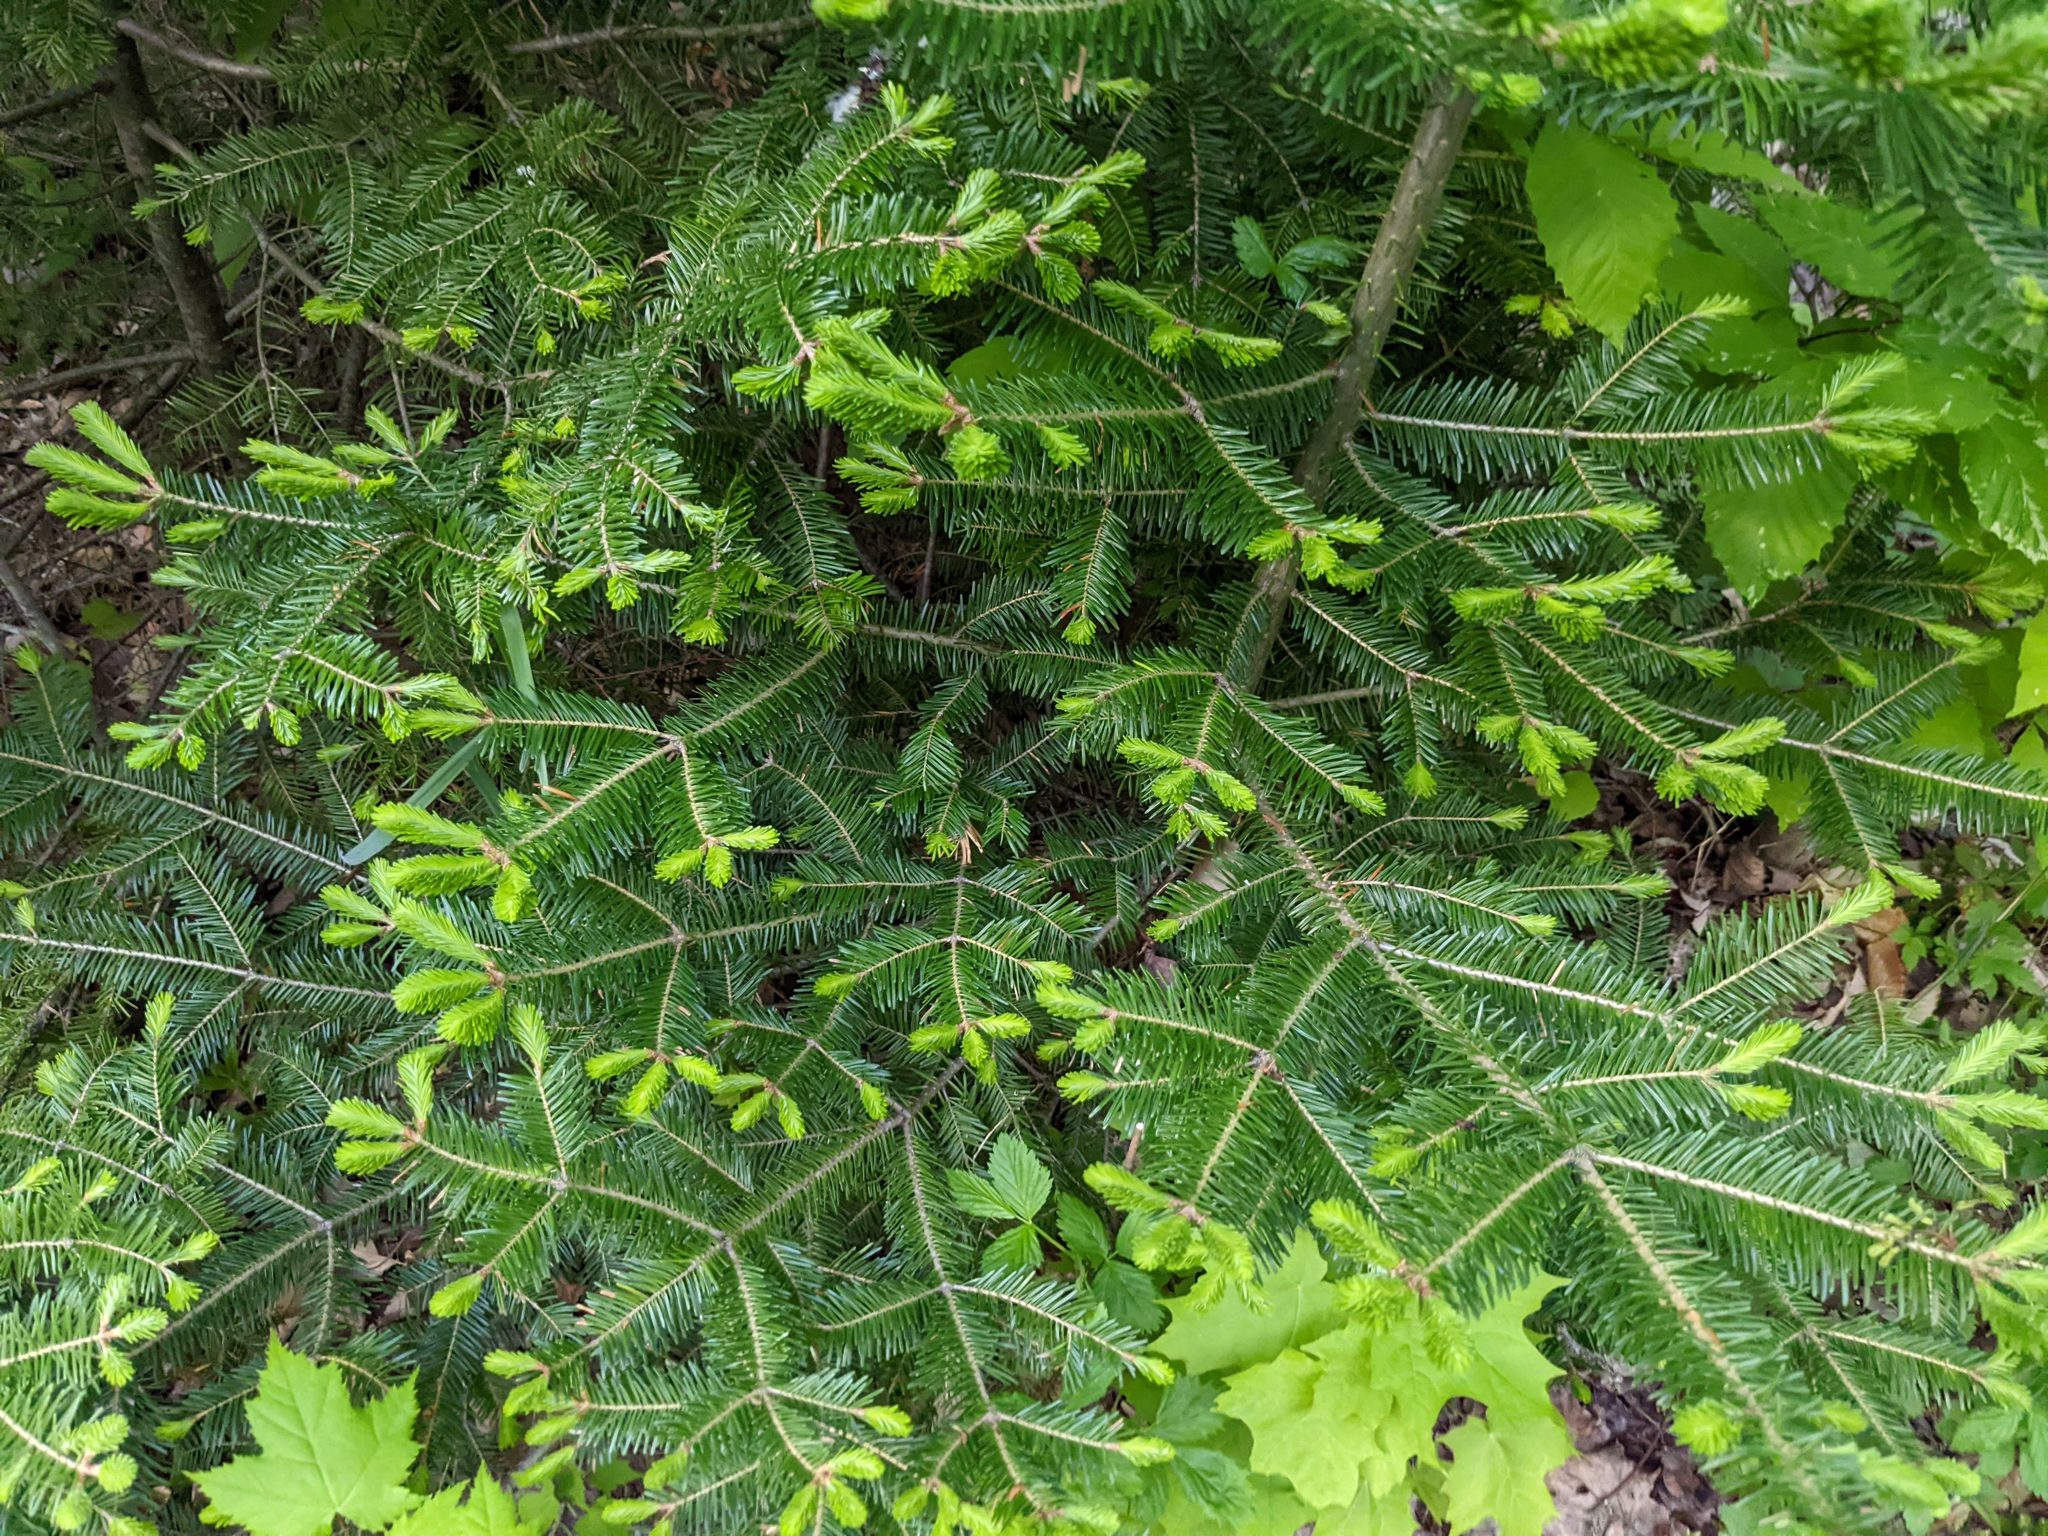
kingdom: Plantae
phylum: Tracheophyta
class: Pinopsida
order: Pinales
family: Pinaceae
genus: Abies
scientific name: Abies balsamea
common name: Balsam fir
